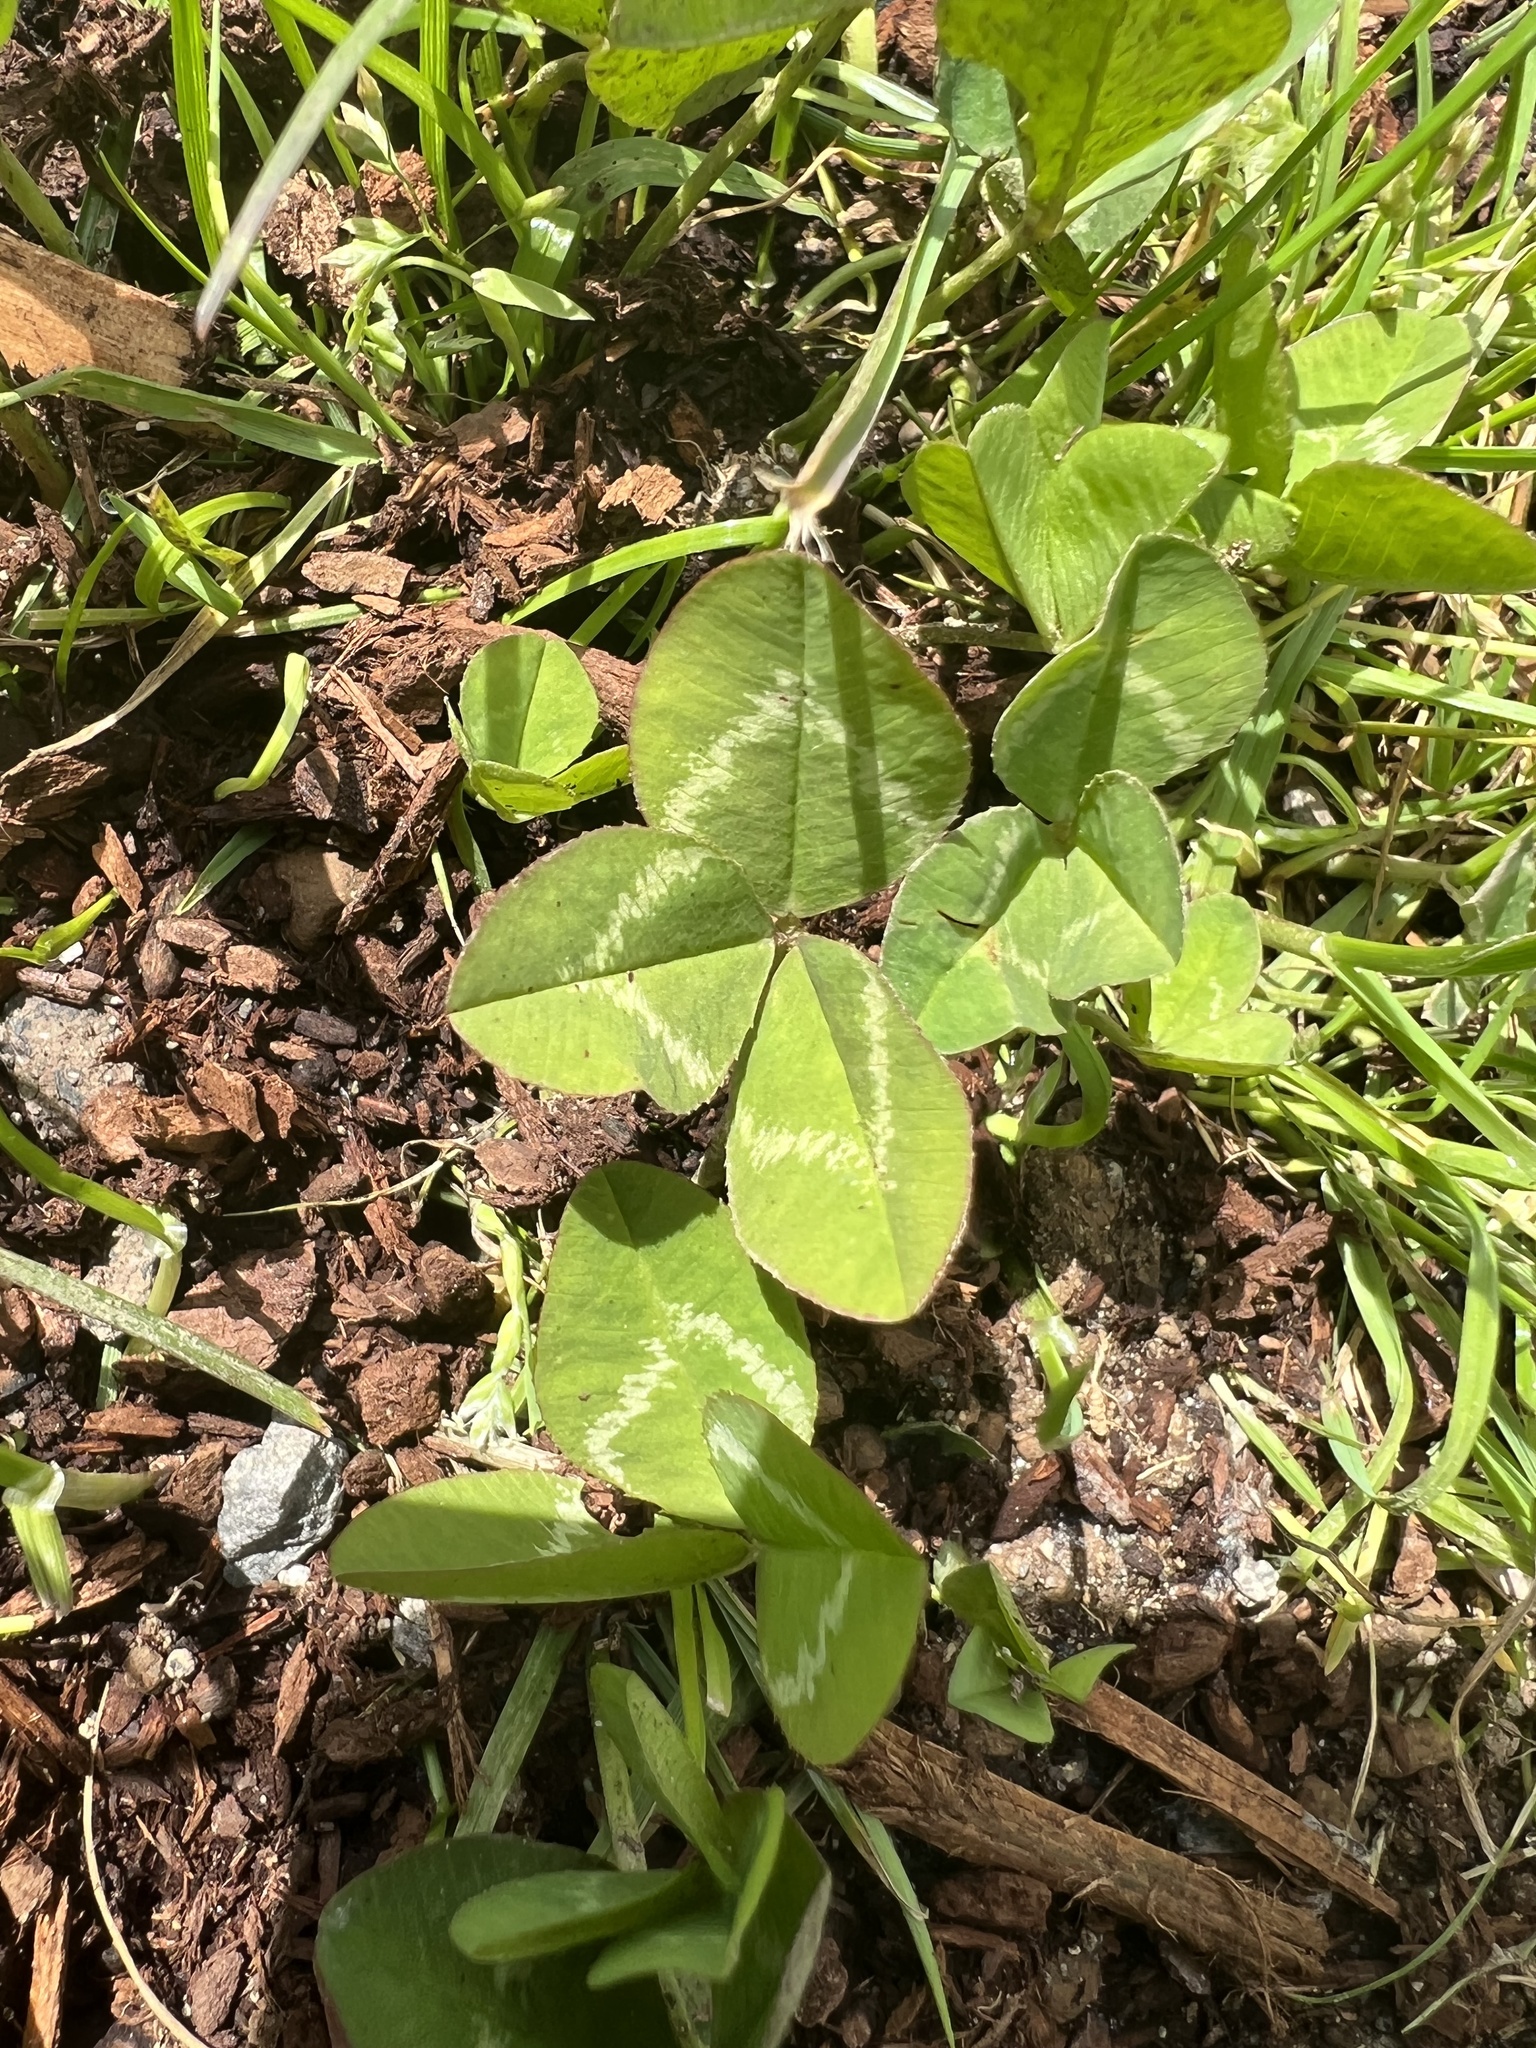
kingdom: Plantae
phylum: Tracheophyta
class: Magnoliopsida
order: Fabales
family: Fabaceae
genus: Trifolium
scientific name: Trifolium repens
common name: White clover
